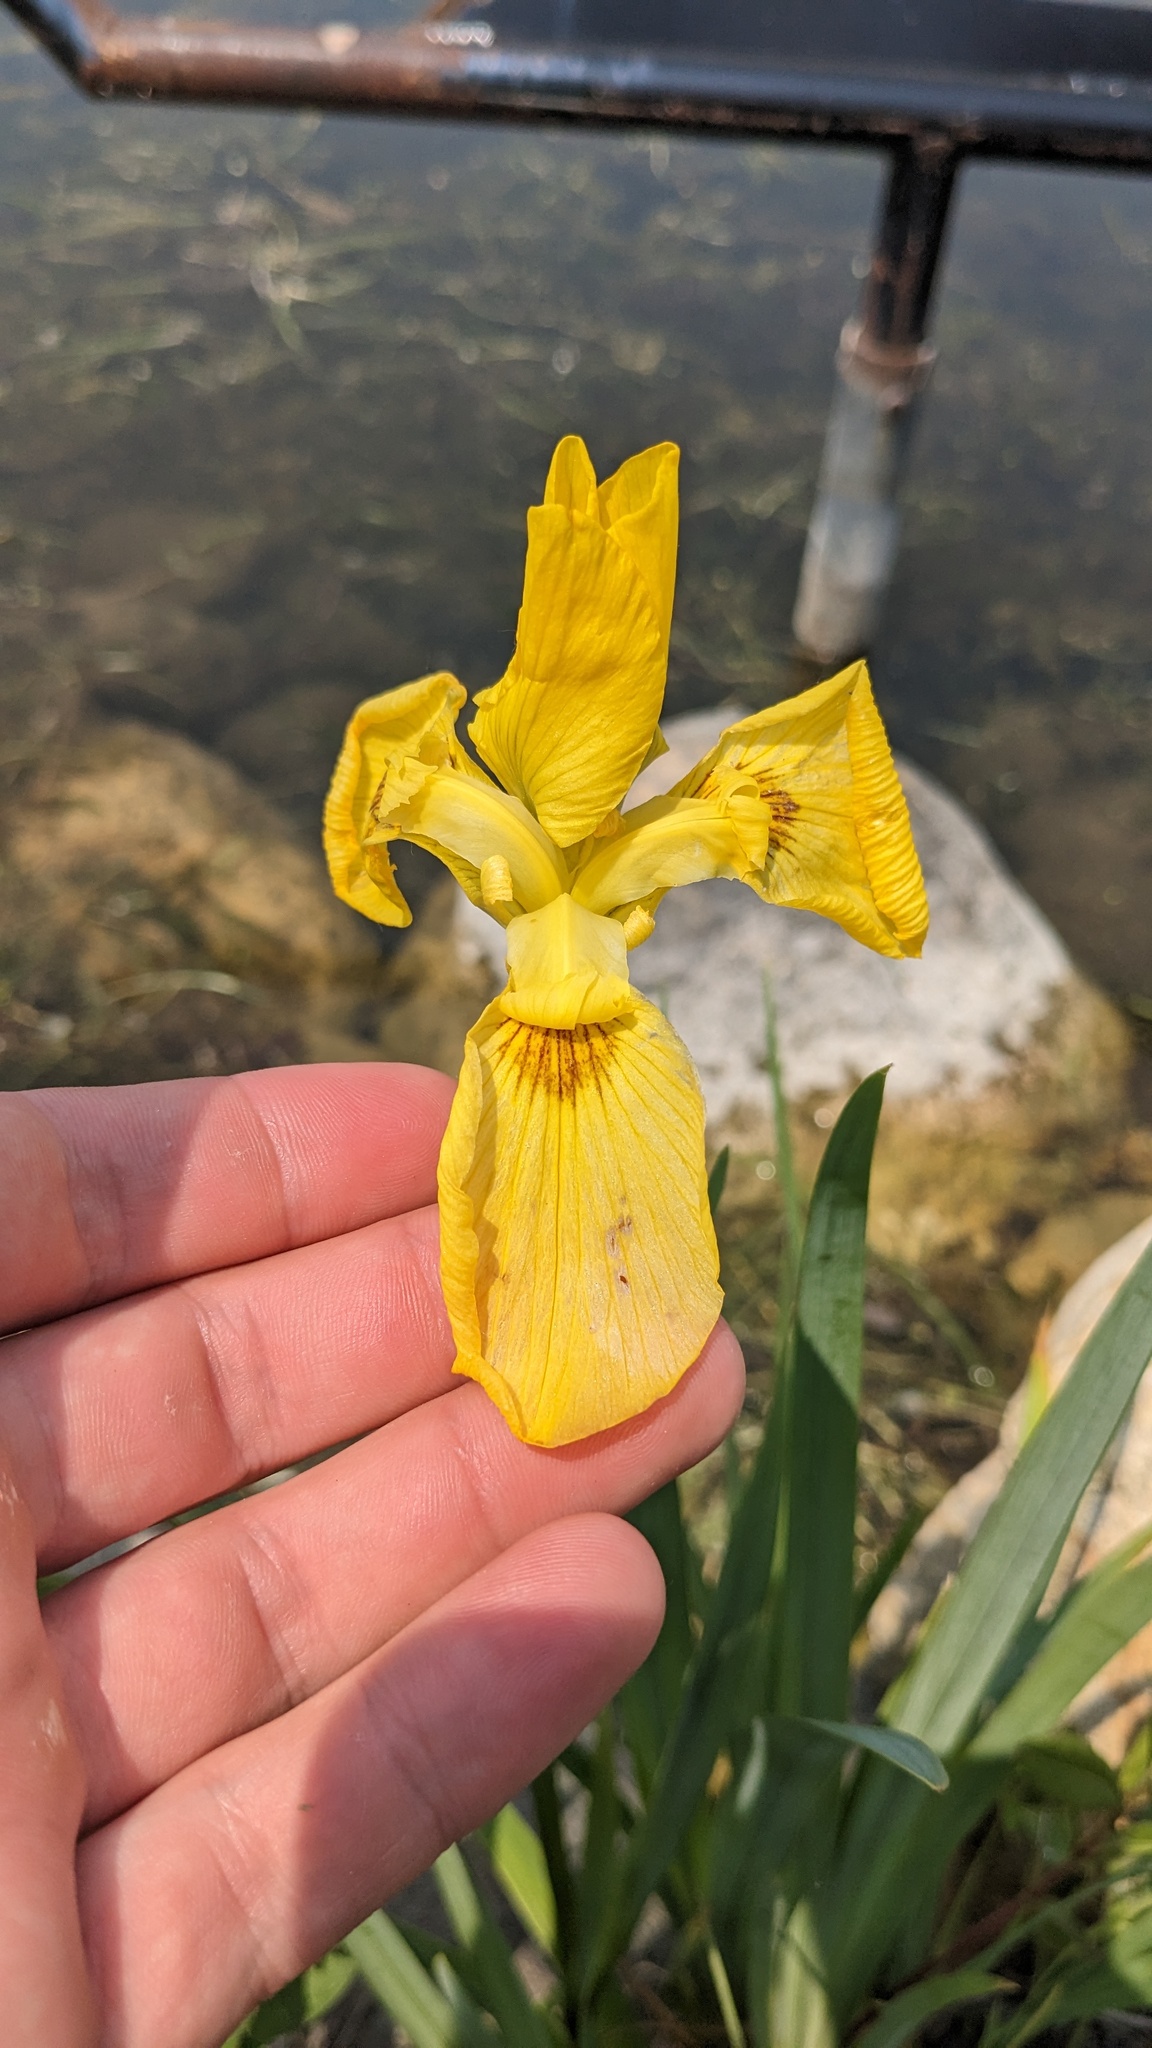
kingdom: Plantae
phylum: Tracheophyta
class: Liliopsida
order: Asparagales
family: Iridaceae
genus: Iris
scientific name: Iris pseudacorus
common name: Yellow flag
